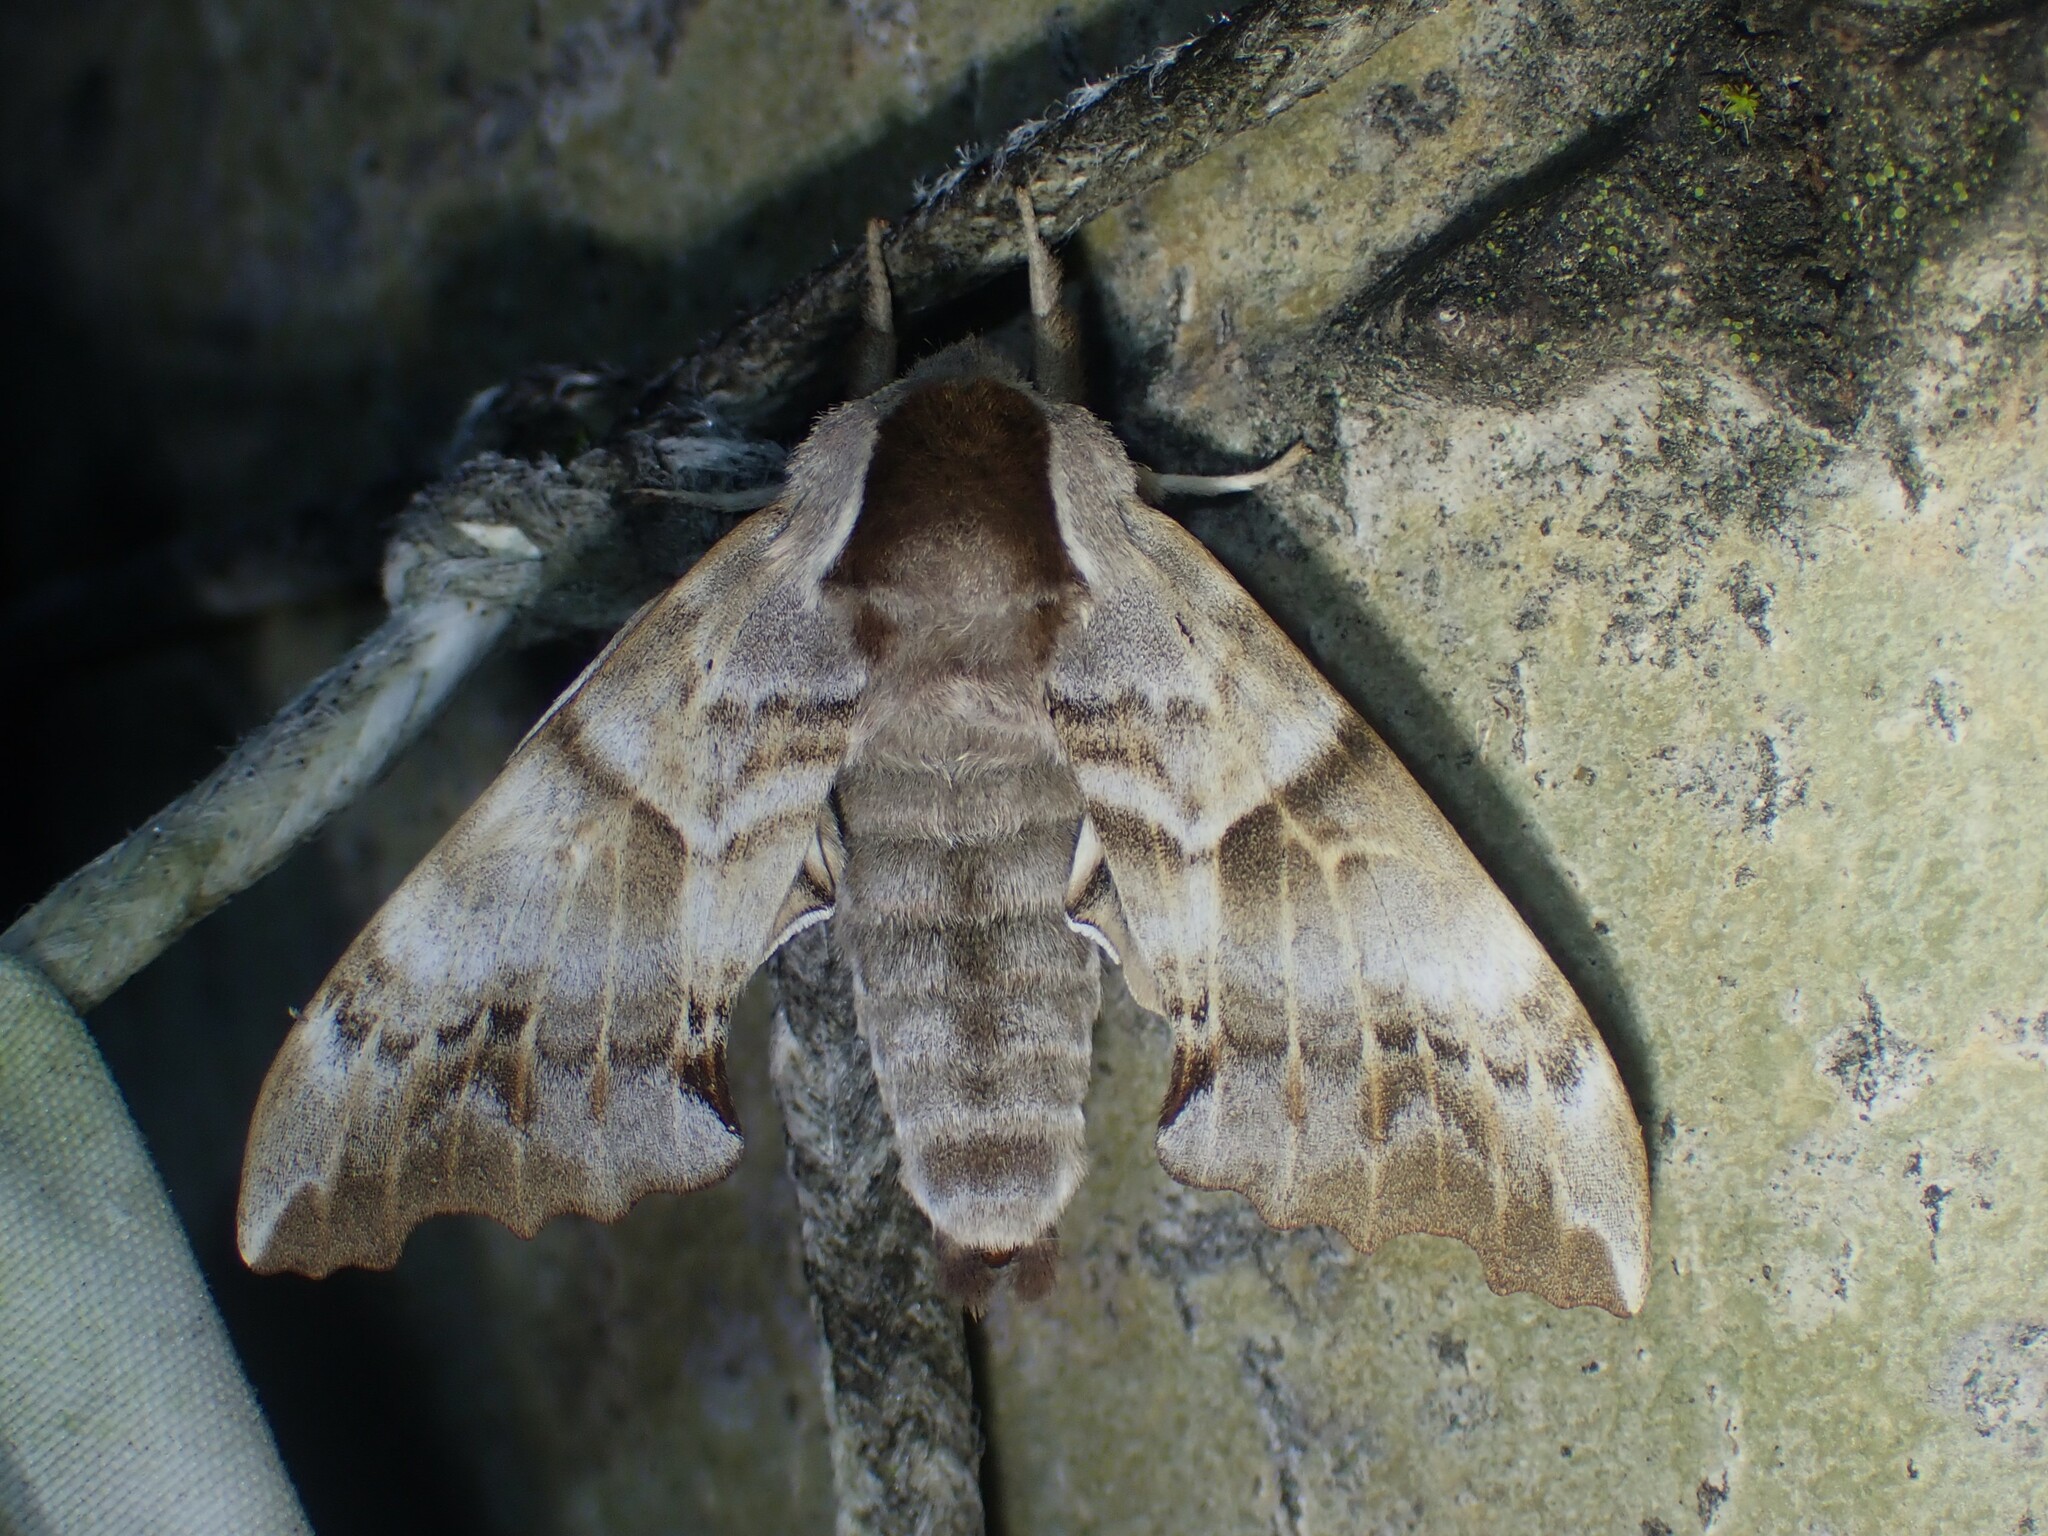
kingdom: Animalia
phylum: Arthropoda
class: Insecta
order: Lepidoptera
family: Sphingidae
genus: Smerinthus
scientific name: Smerinthus cerisyi
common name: Cerisy's sphinx moth
